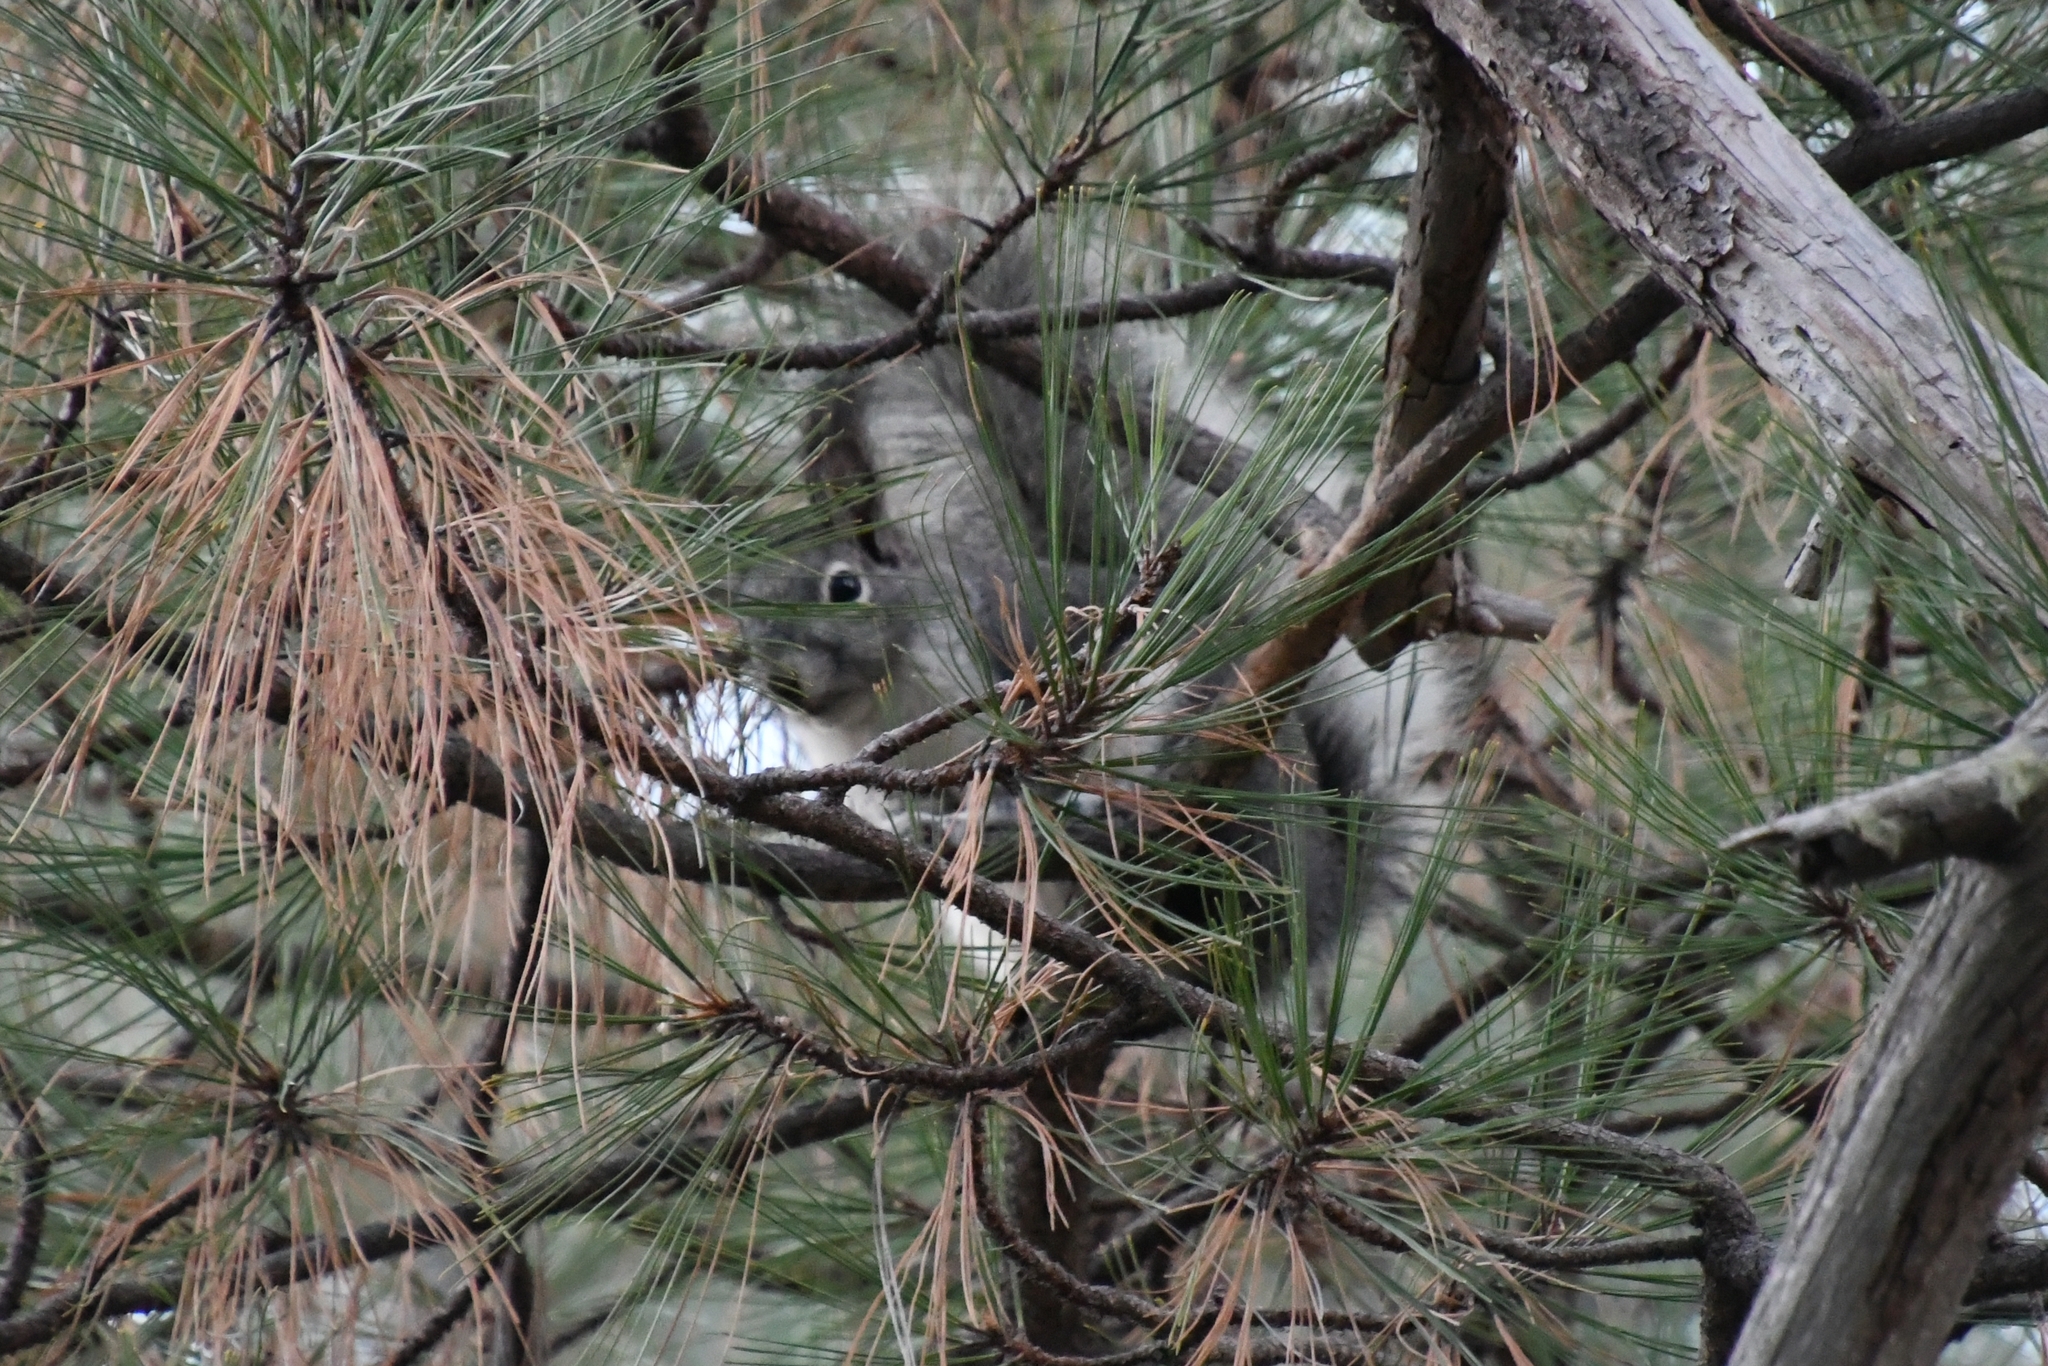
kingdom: Animalia
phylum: Chordata
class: Mammalia
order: Rodentia
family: Sciuridae
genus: Sciurus
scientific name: Sciurus aberti
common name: Abert's squirrel
